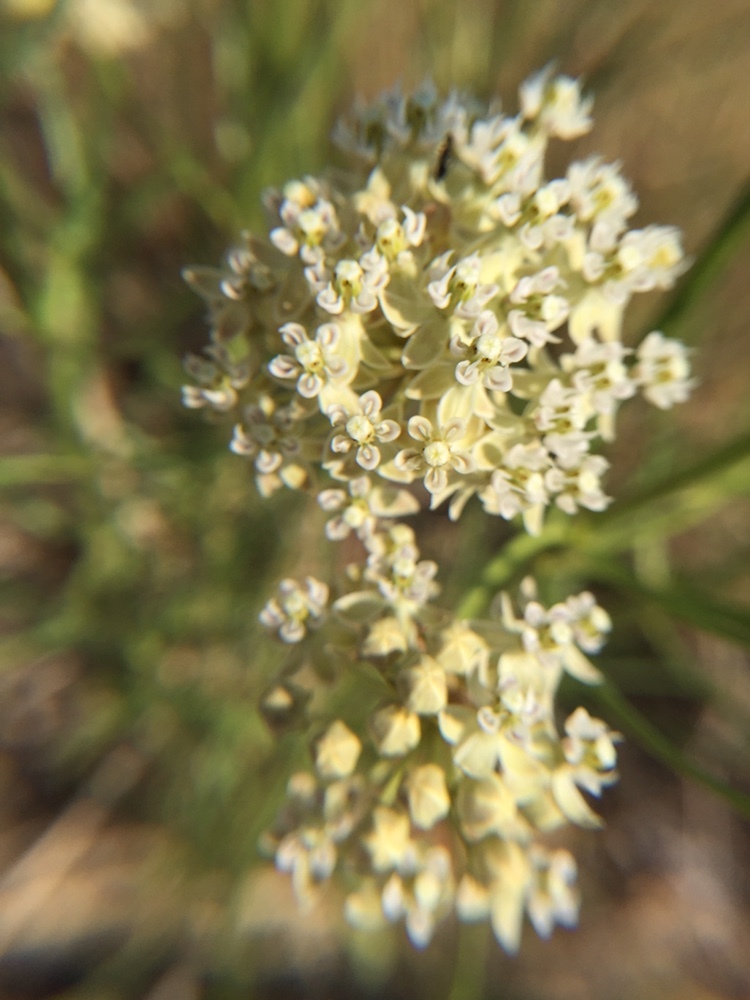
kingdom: Plantae
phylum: Tracheophyta
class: Magnoliopsida
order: Gentianales
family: Apocynaceae
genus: Asclepias
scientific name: Asclepias subverticillata
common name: Horsetail milkweed
